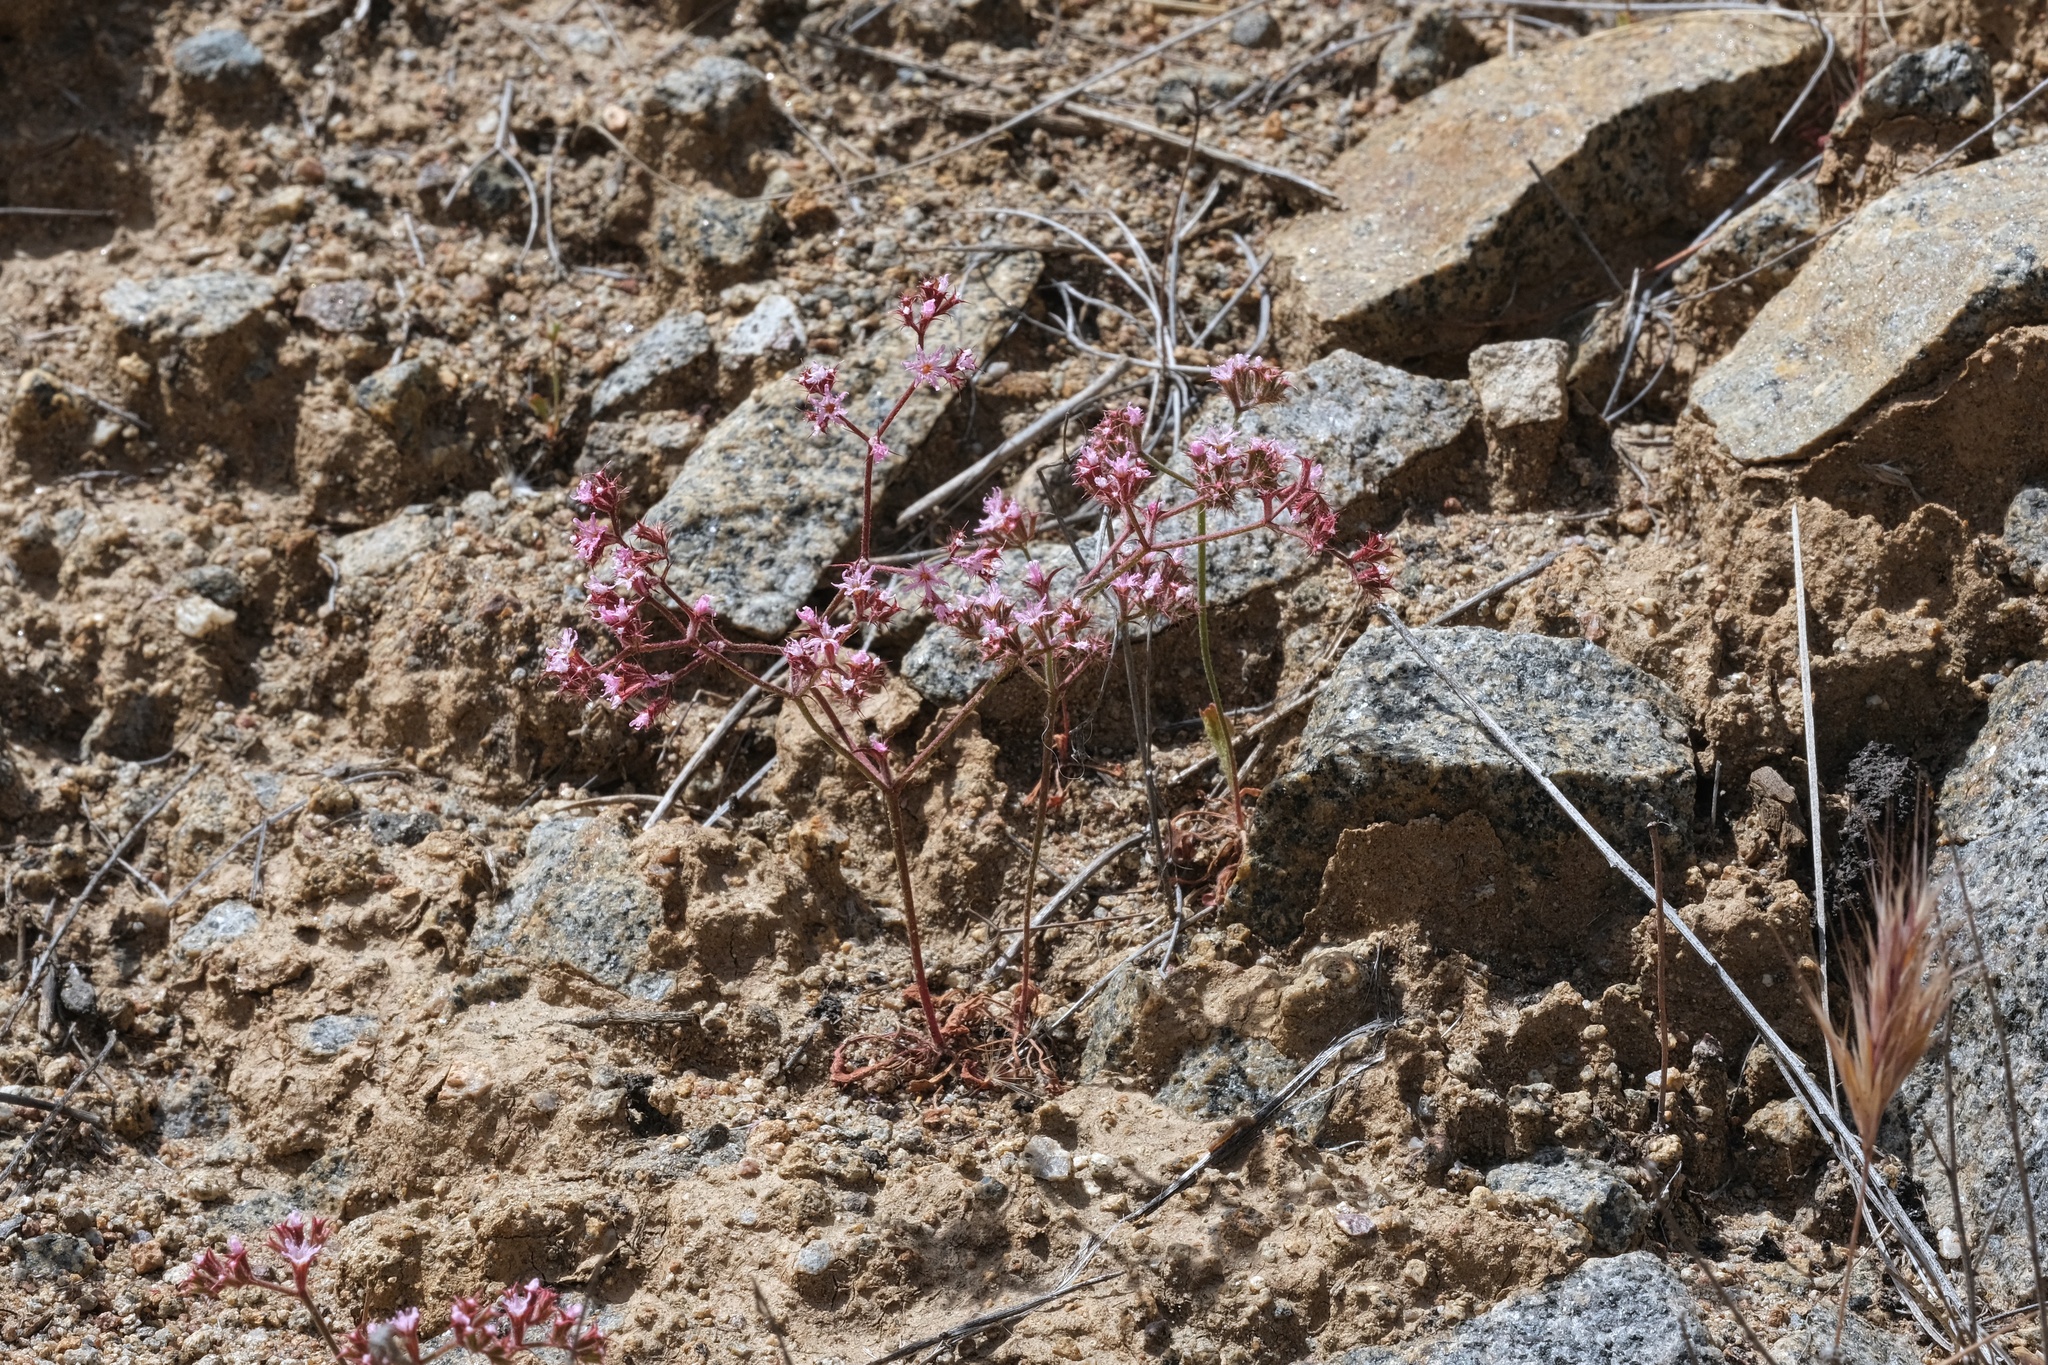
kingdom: Plantae
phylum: Tracheophyta
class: Magnoliopsida
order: Caryophyllales
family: Polygonaceae
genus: Chorizanthe
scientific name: Chorizanthe fimbriata
